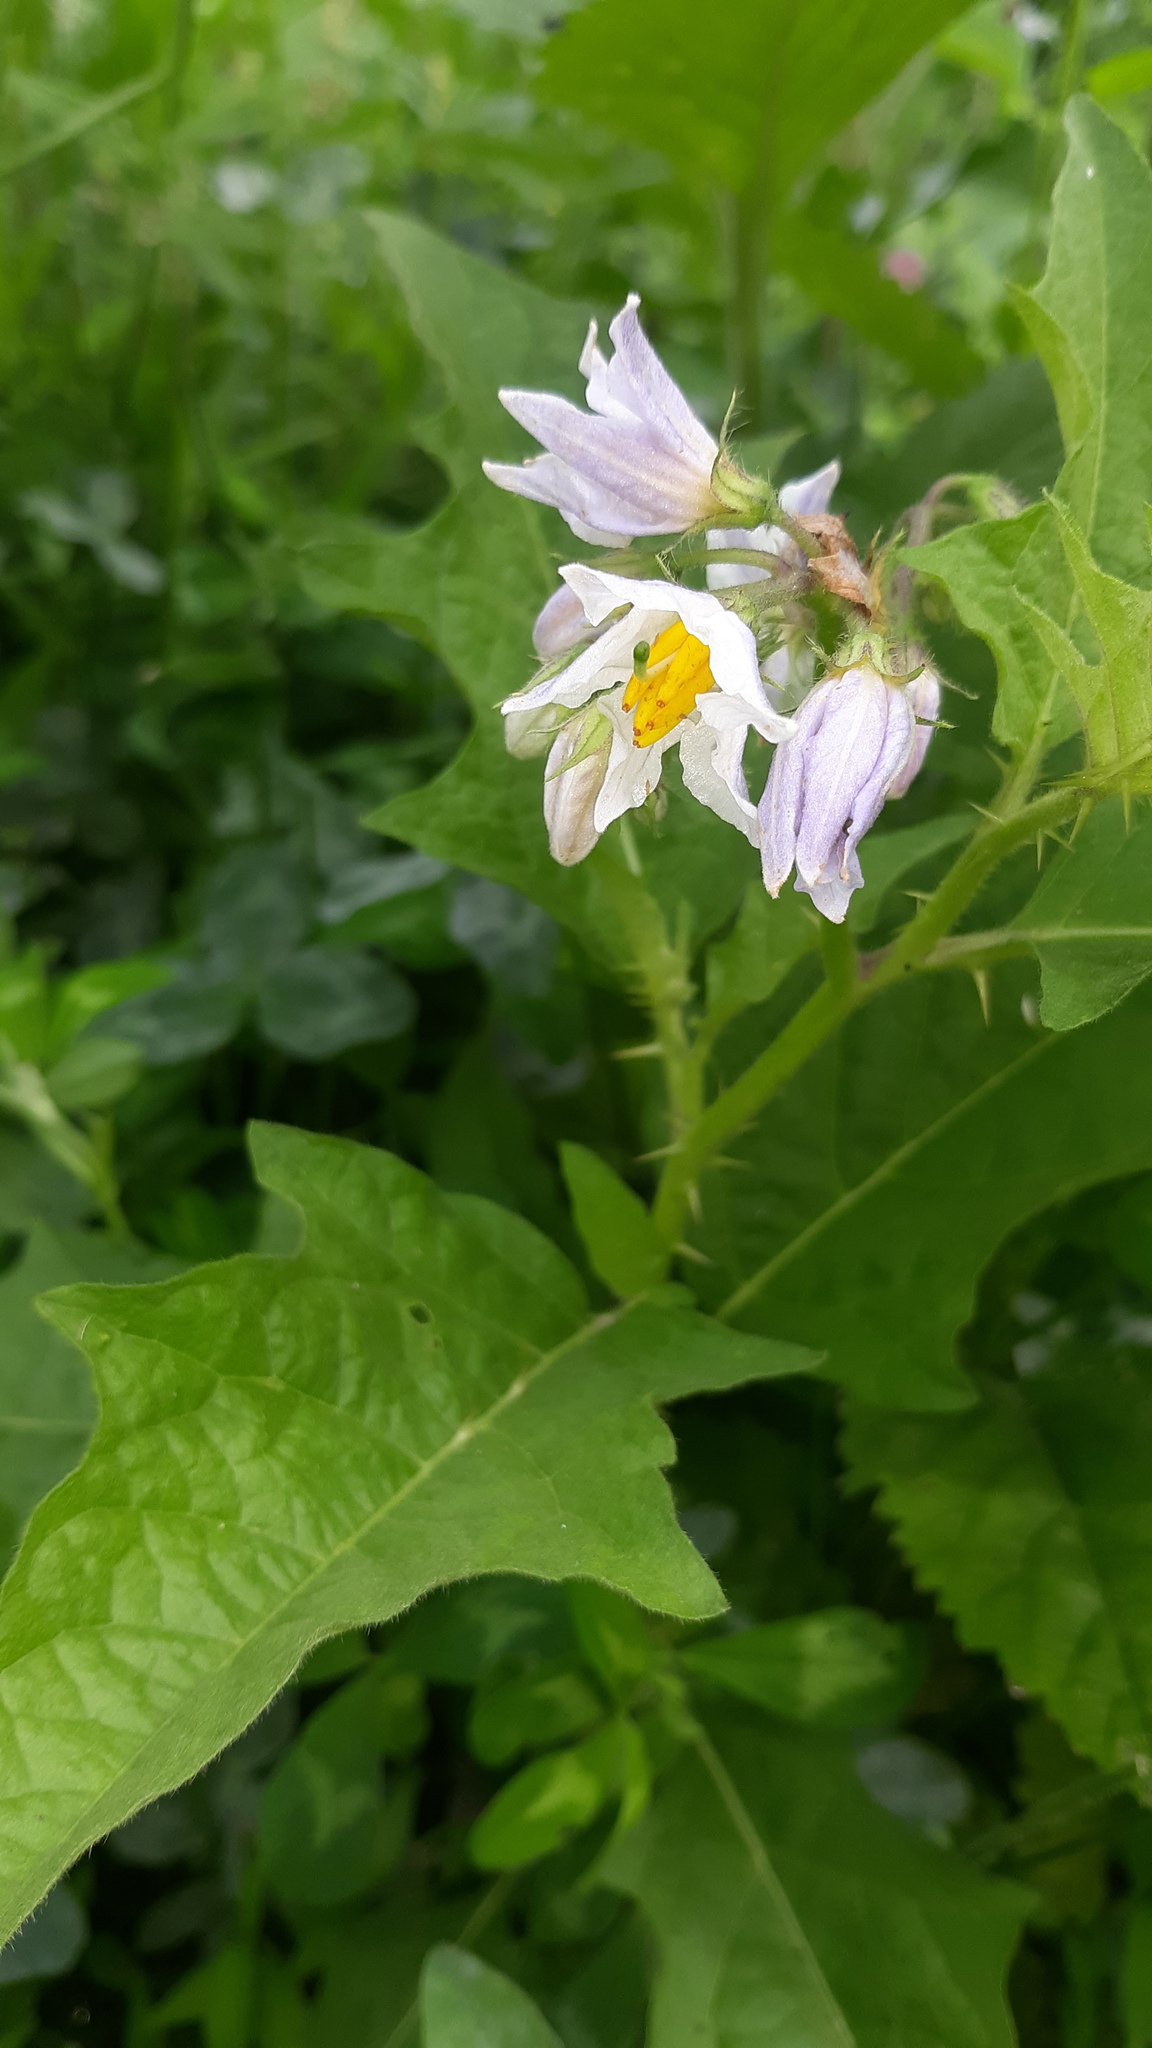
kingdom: Plantae
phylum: Tracheophyta
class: Magnoliopsida
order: Solanales
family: Solanaceae
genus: Solanum
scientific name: Solanum carolinense
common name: Horse-nettle
